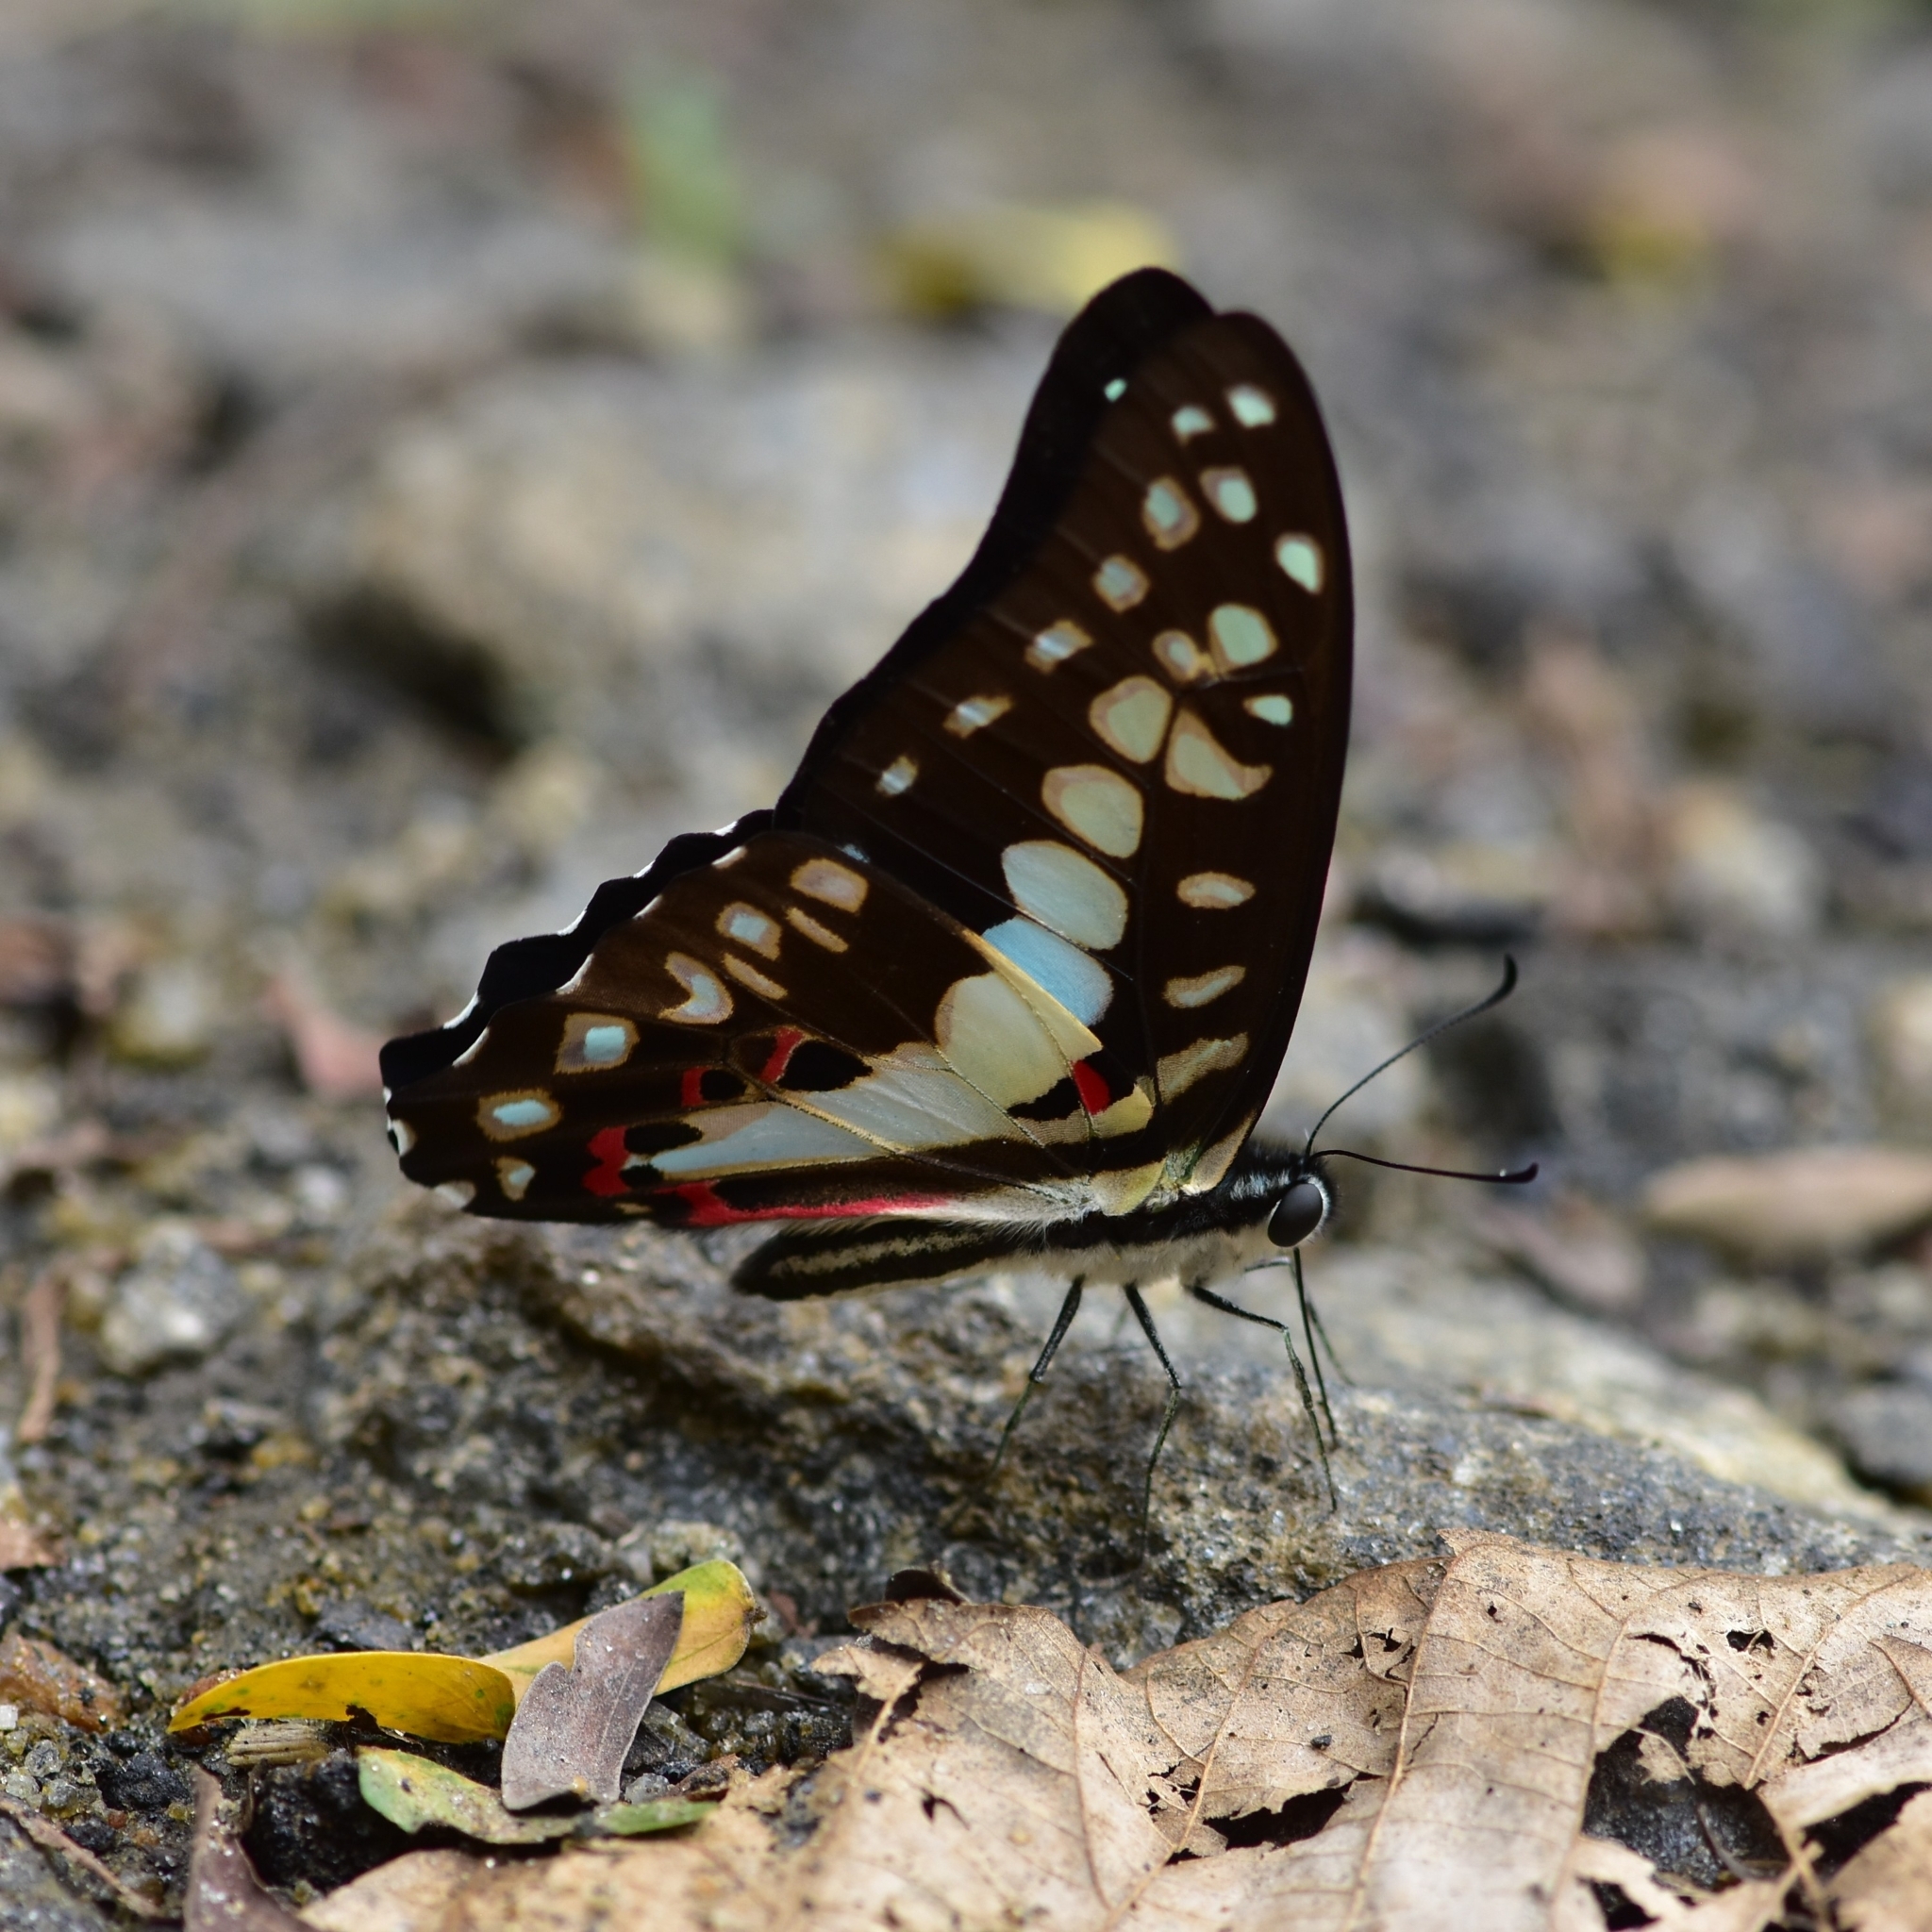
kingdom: Animalia
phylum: Arthropoda
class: Insecta
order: Lepidoptera
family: Papilionidae
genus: Graphium
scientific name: Graphium doson
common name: Common jay
